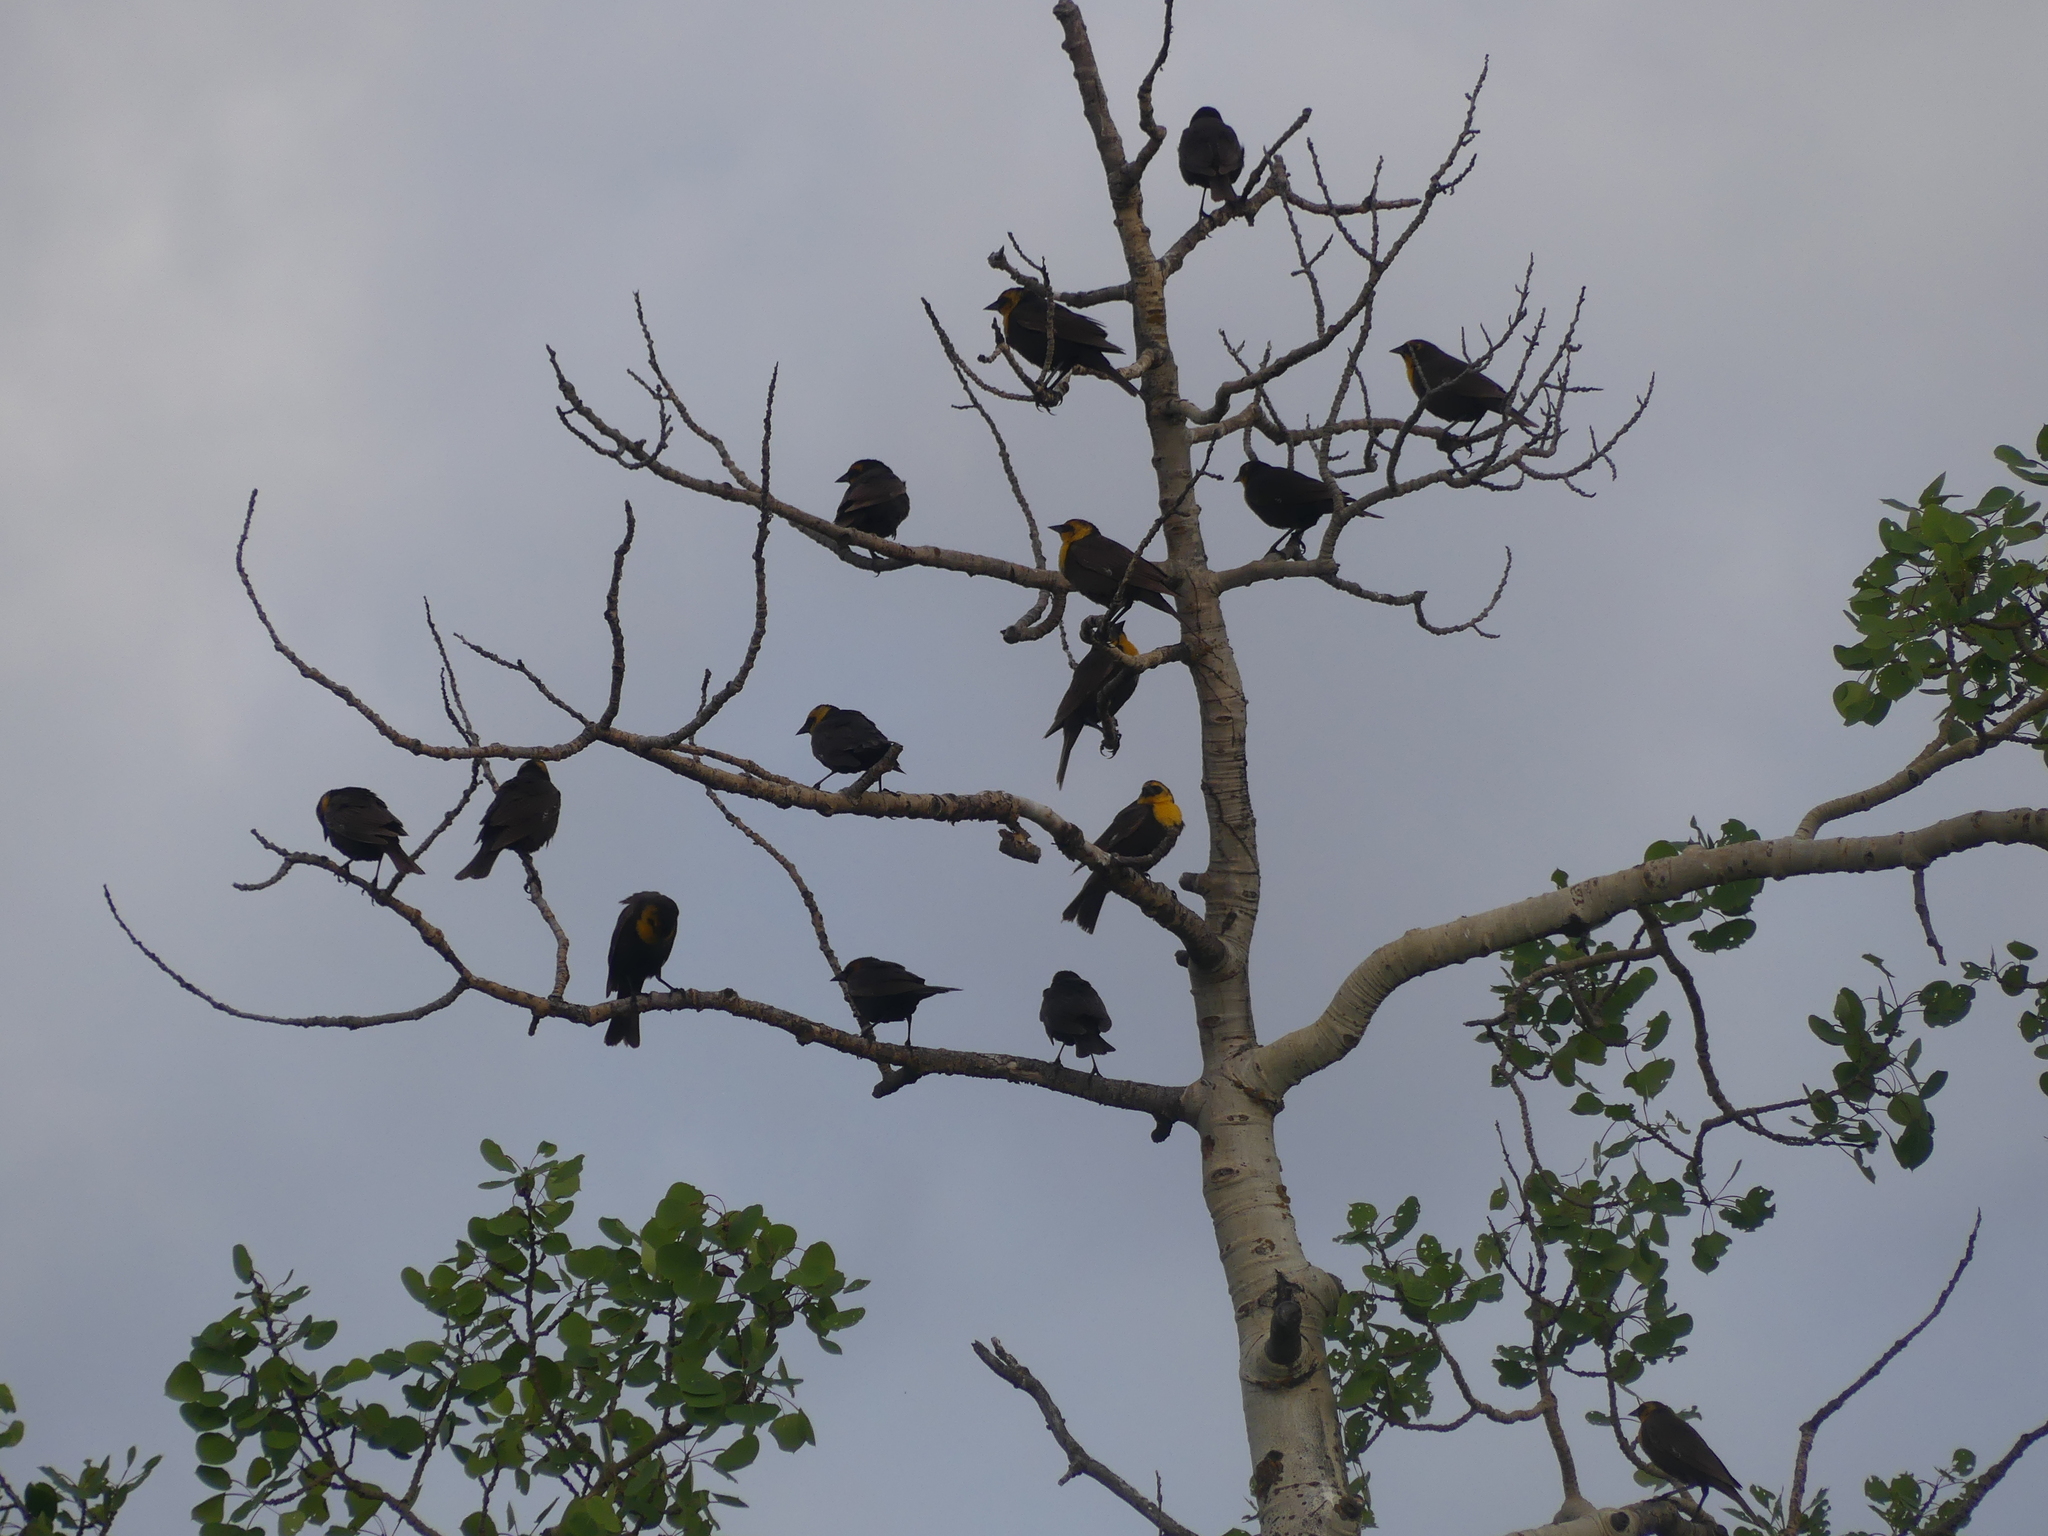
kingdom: Animalia
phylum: Chordata
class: Aves
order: Passeriformes
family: Icteridae
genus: Xanthocephalus
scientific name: Xanthocephalus xanthocephalus
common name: Yellow-headed blackbird
